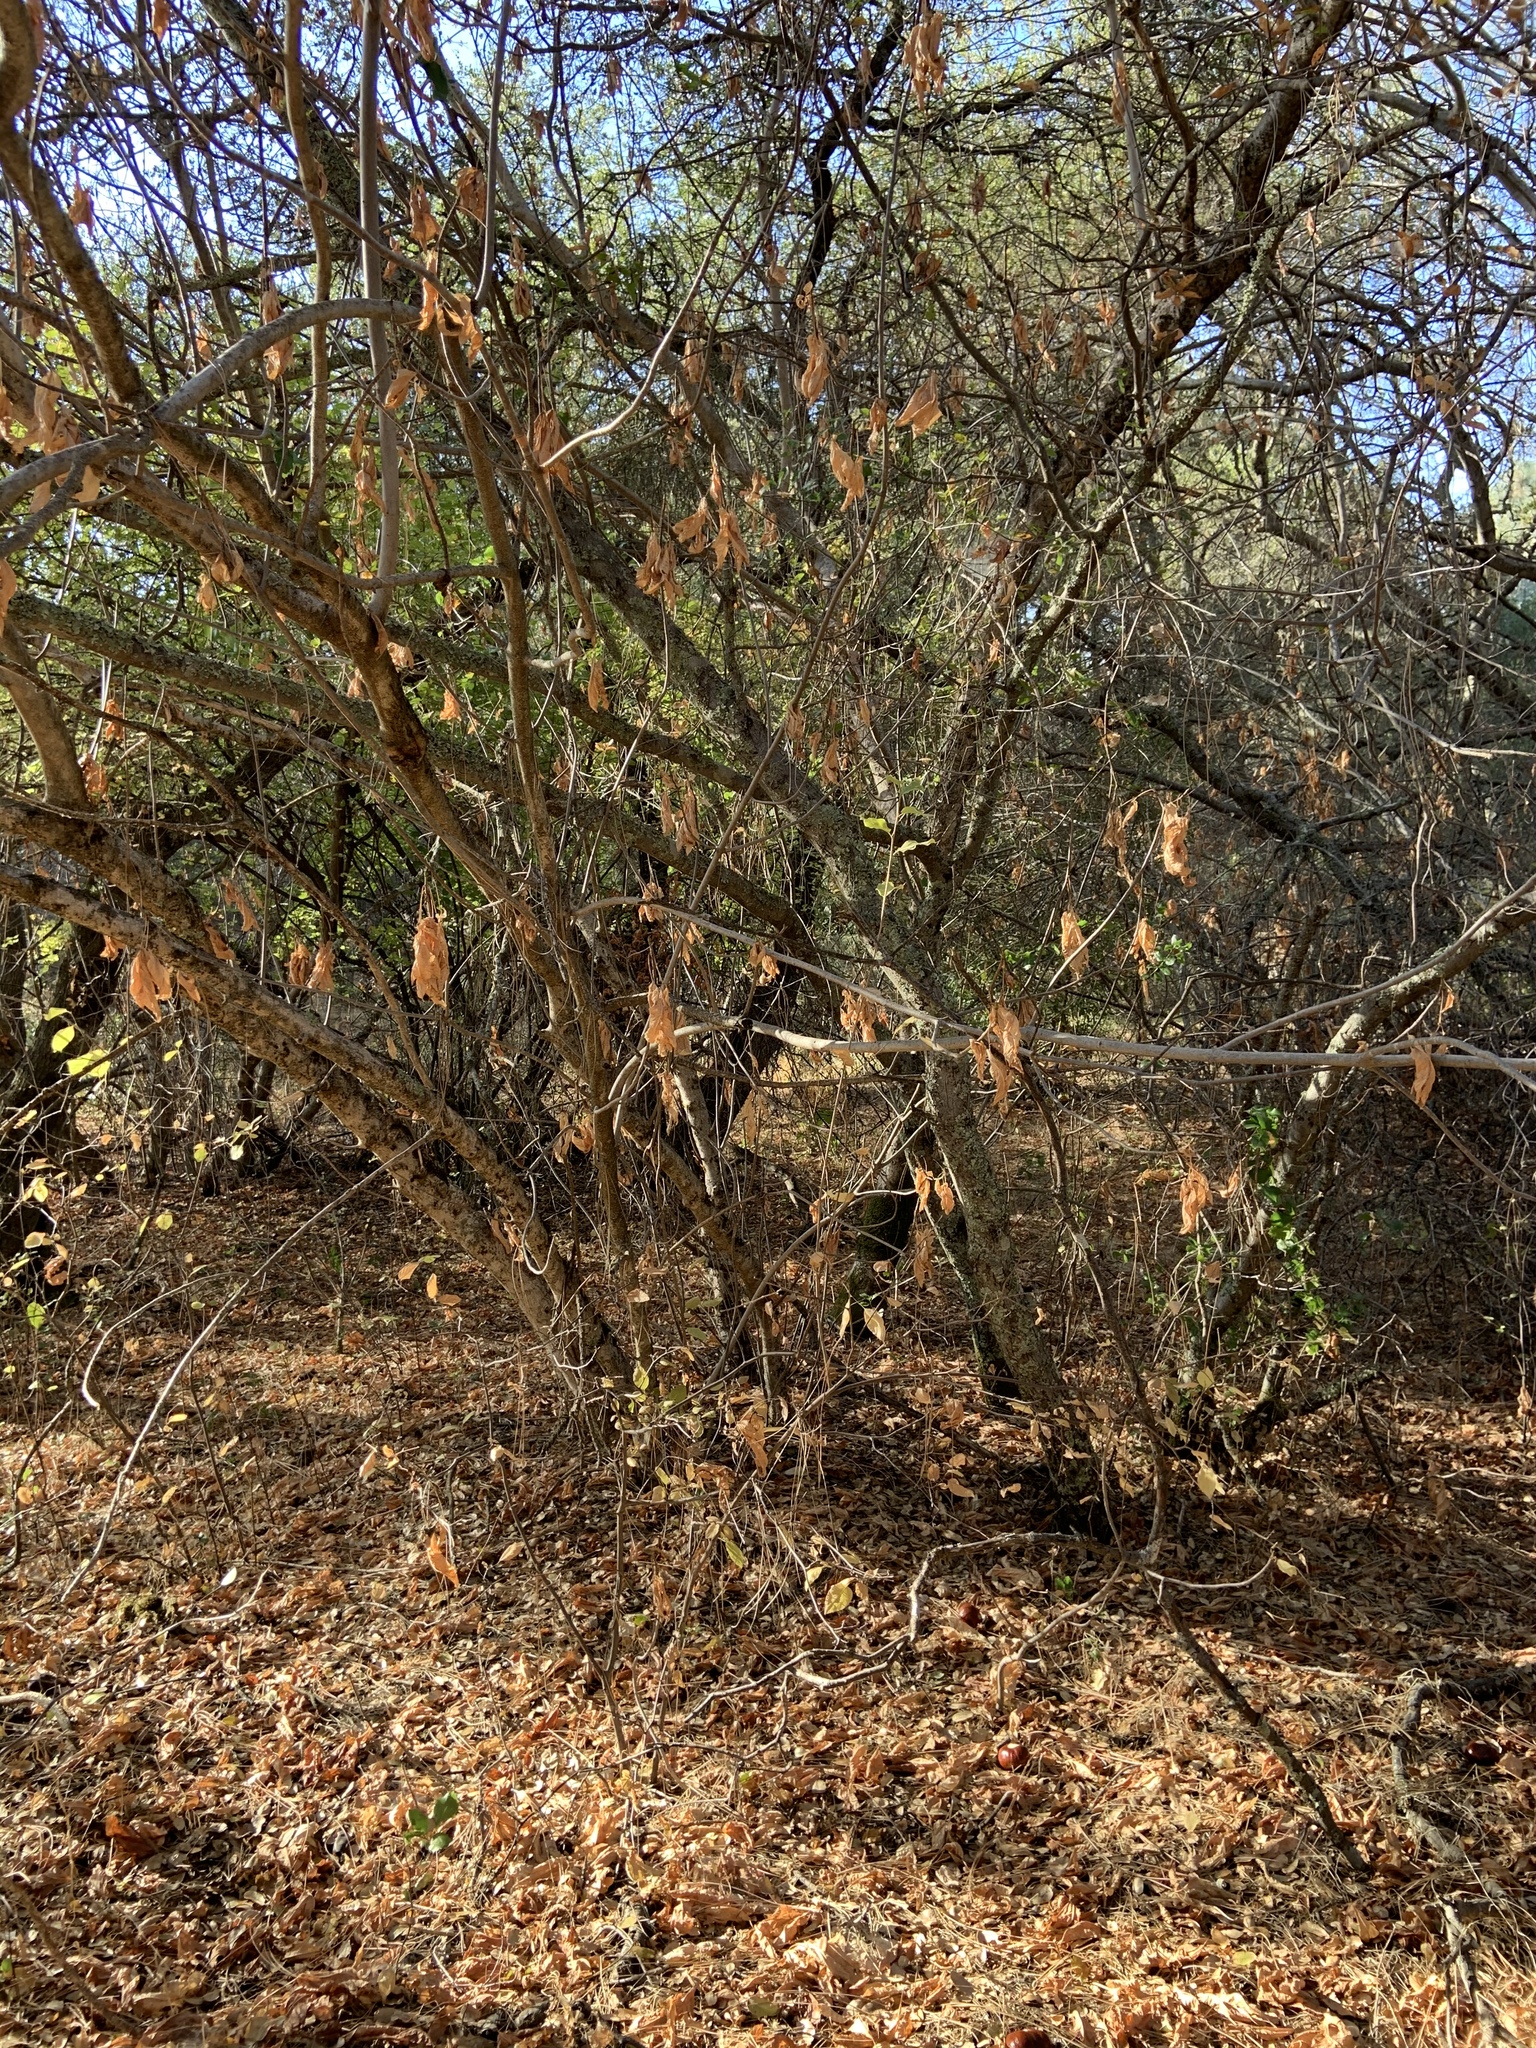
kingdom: Plantae
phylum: Tracheophyta
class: Magnoliopsida
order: Sapindales
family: Sapindaceae
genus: Aesculus
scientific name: Aesculus californica
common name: California buckeye
